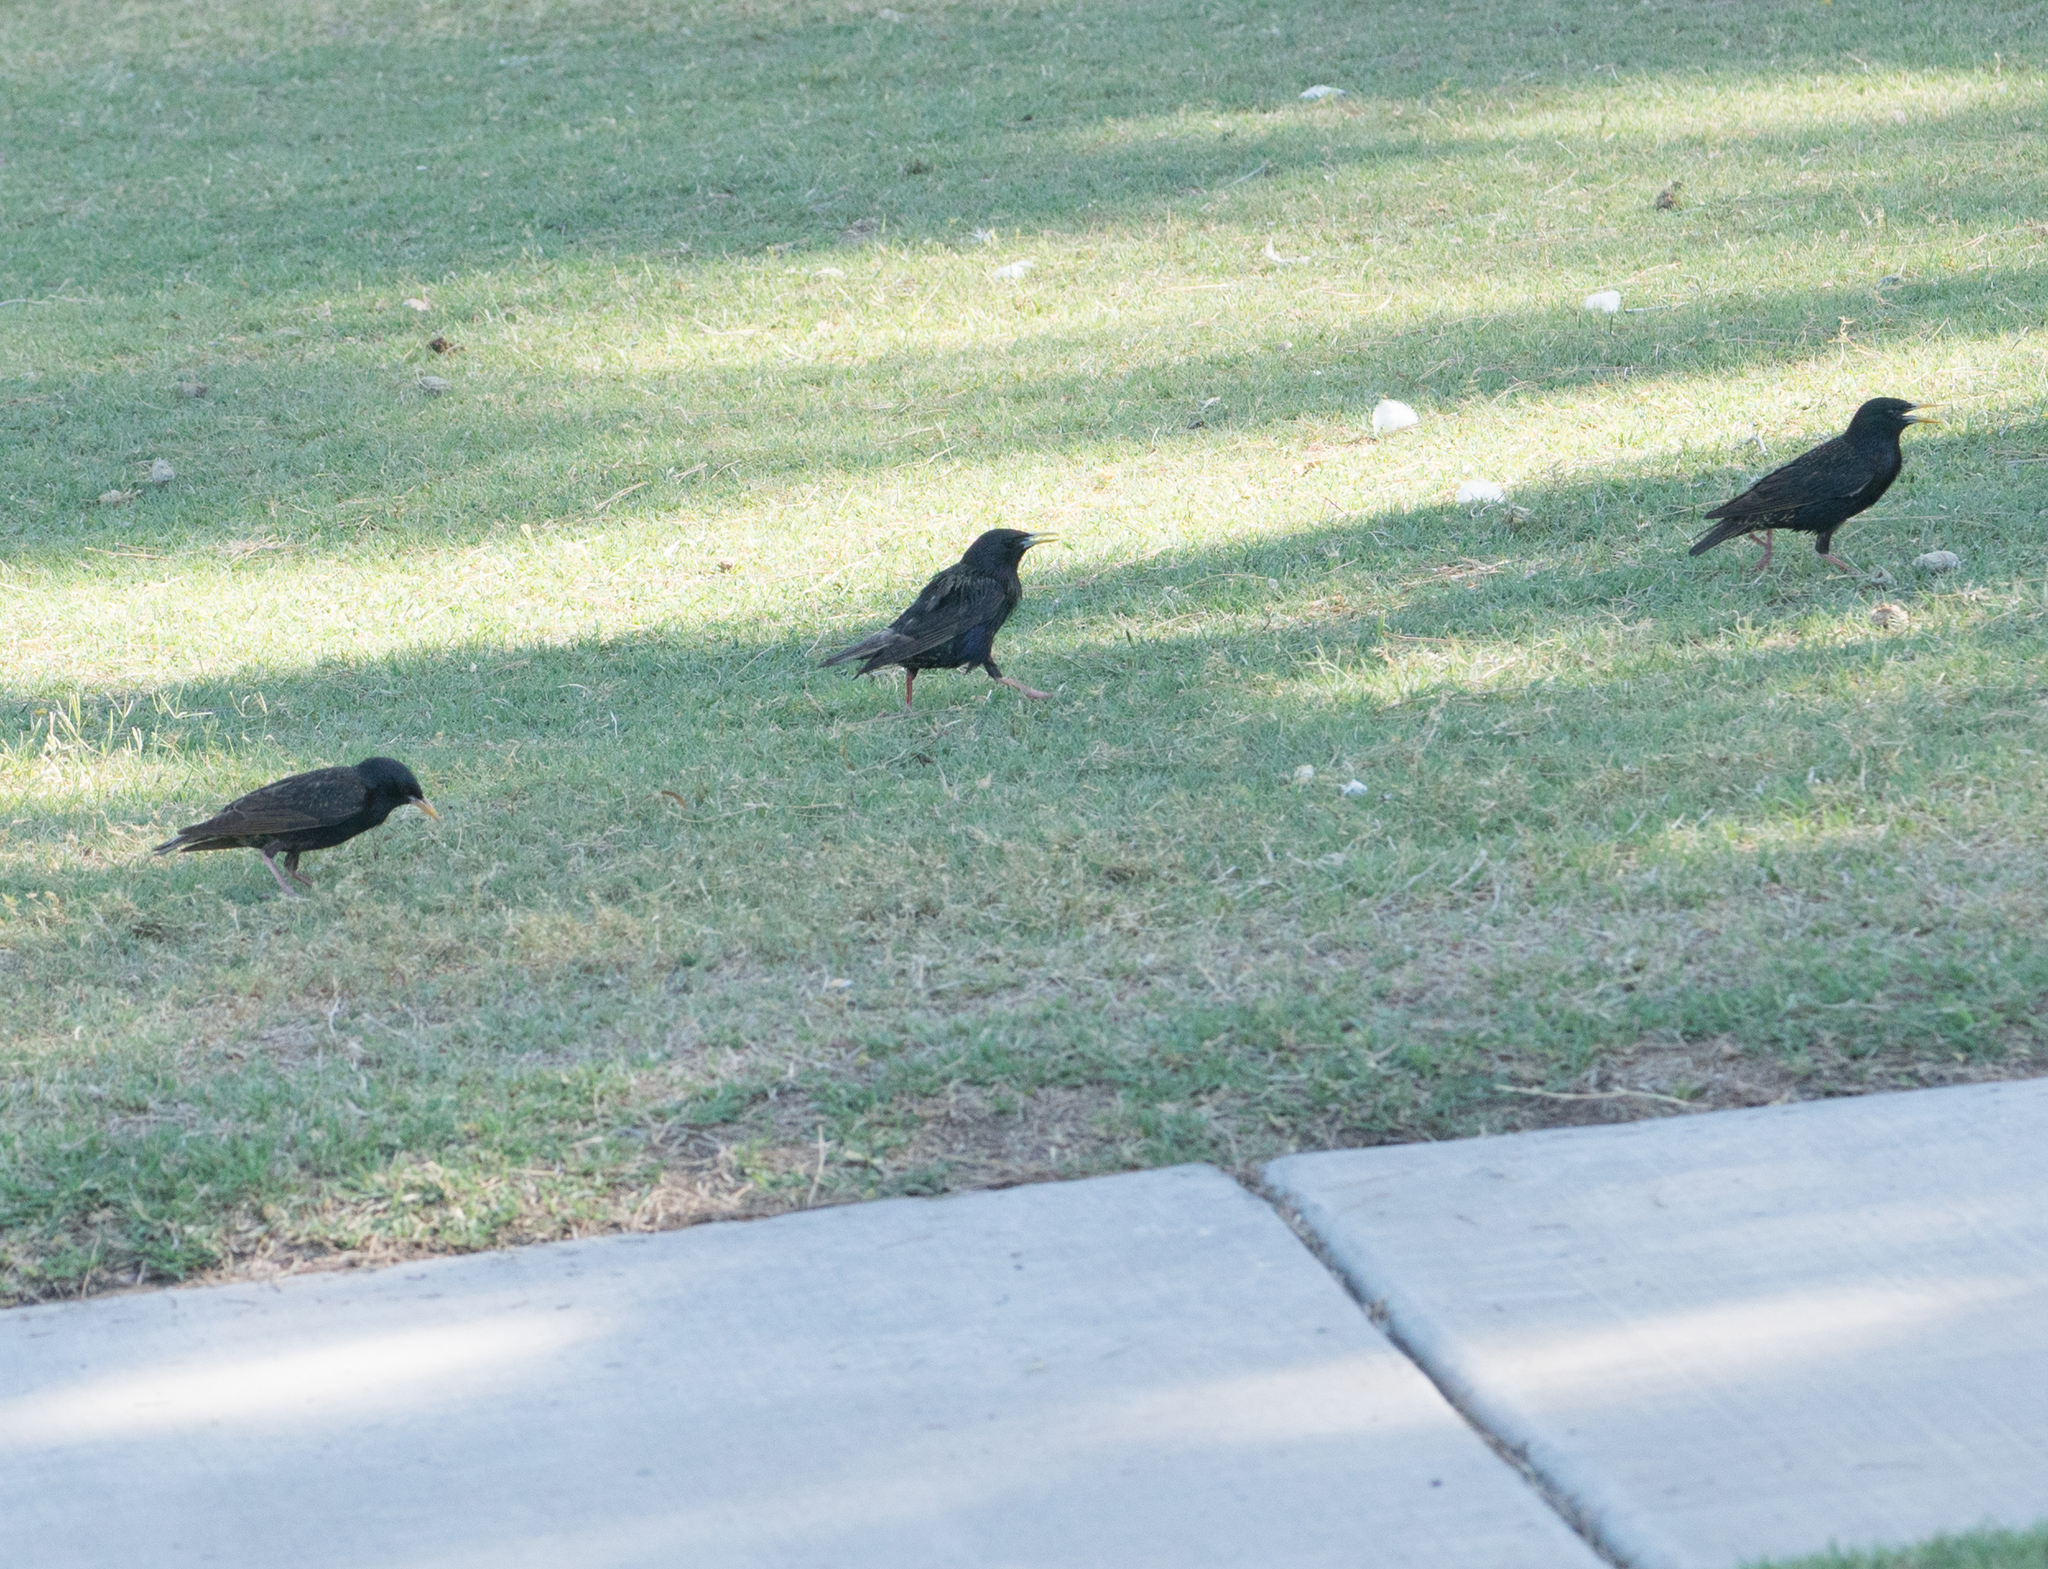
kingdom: Animalia
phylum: Chordata
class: Aves
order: Passeriformes
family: Sturnidae
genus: Sturnus
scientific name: Sturnus vulgaris
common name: Common starling
